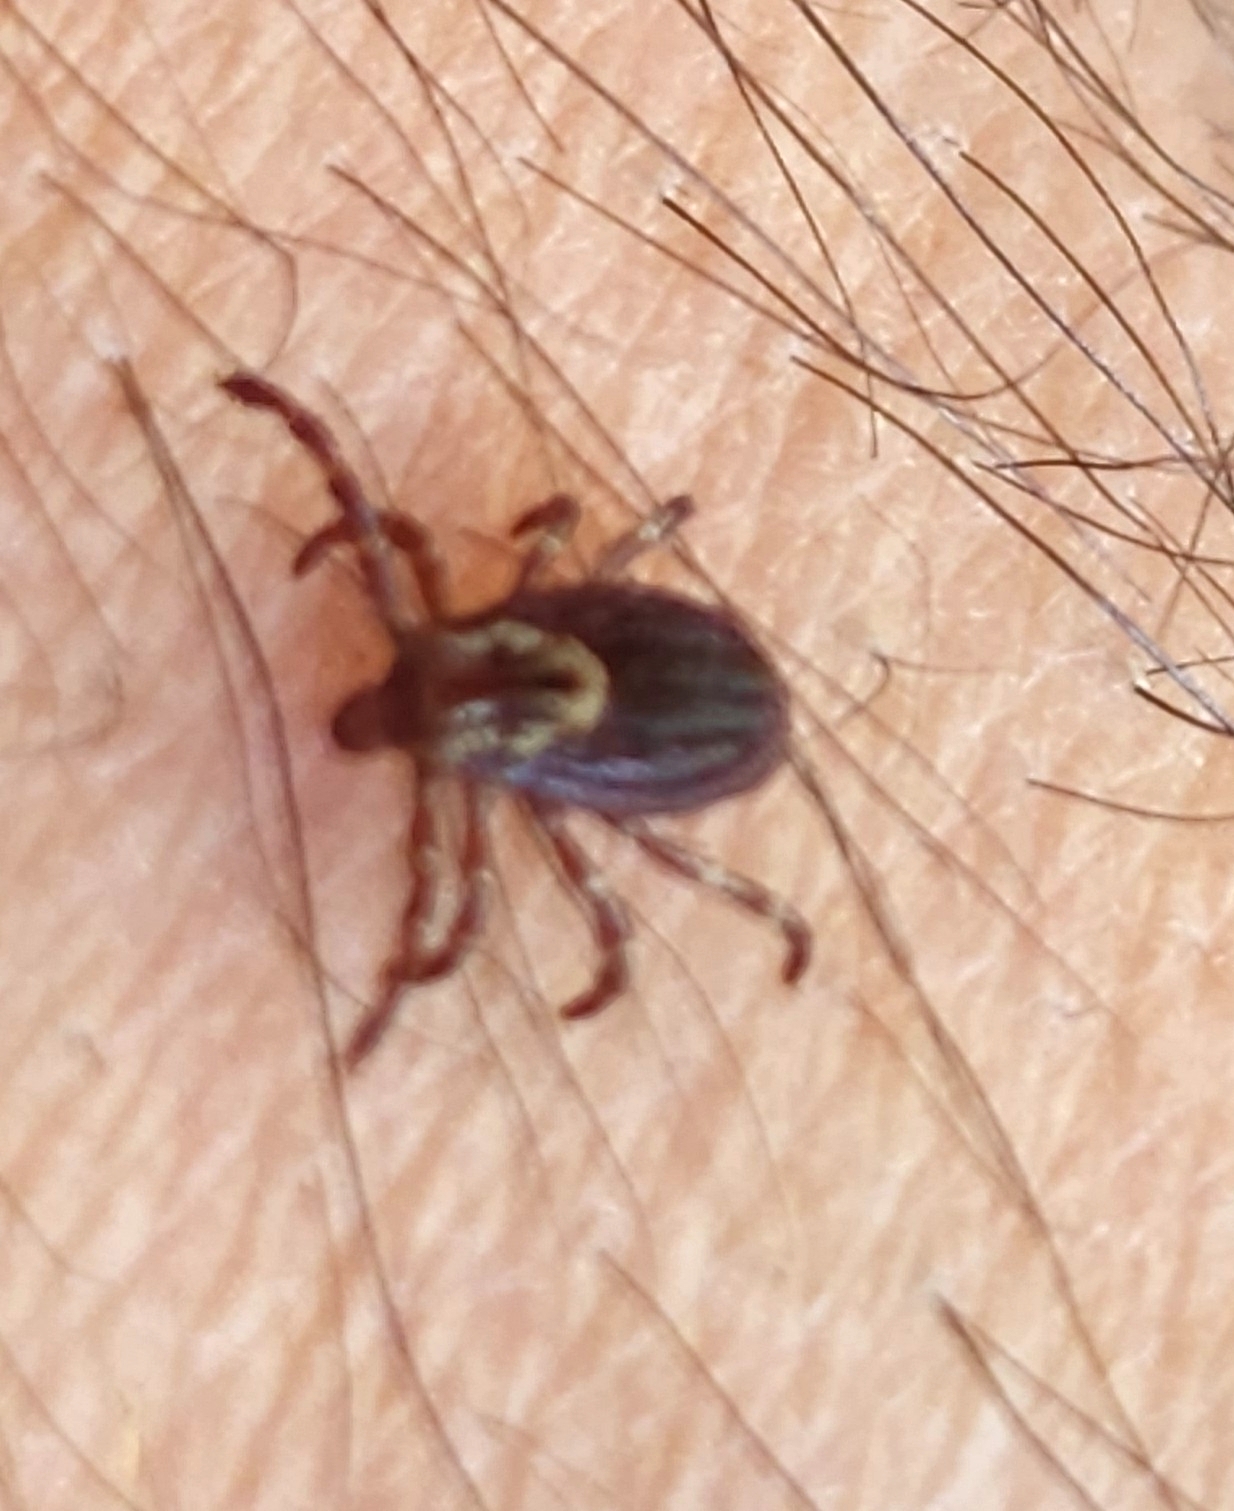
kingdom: Animalia
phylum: Arthropoda
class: Arachnida
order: Ixodida
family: Ixodidae
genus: Dermacentor
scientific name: Dermacentor variabilis
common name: American dog tick
